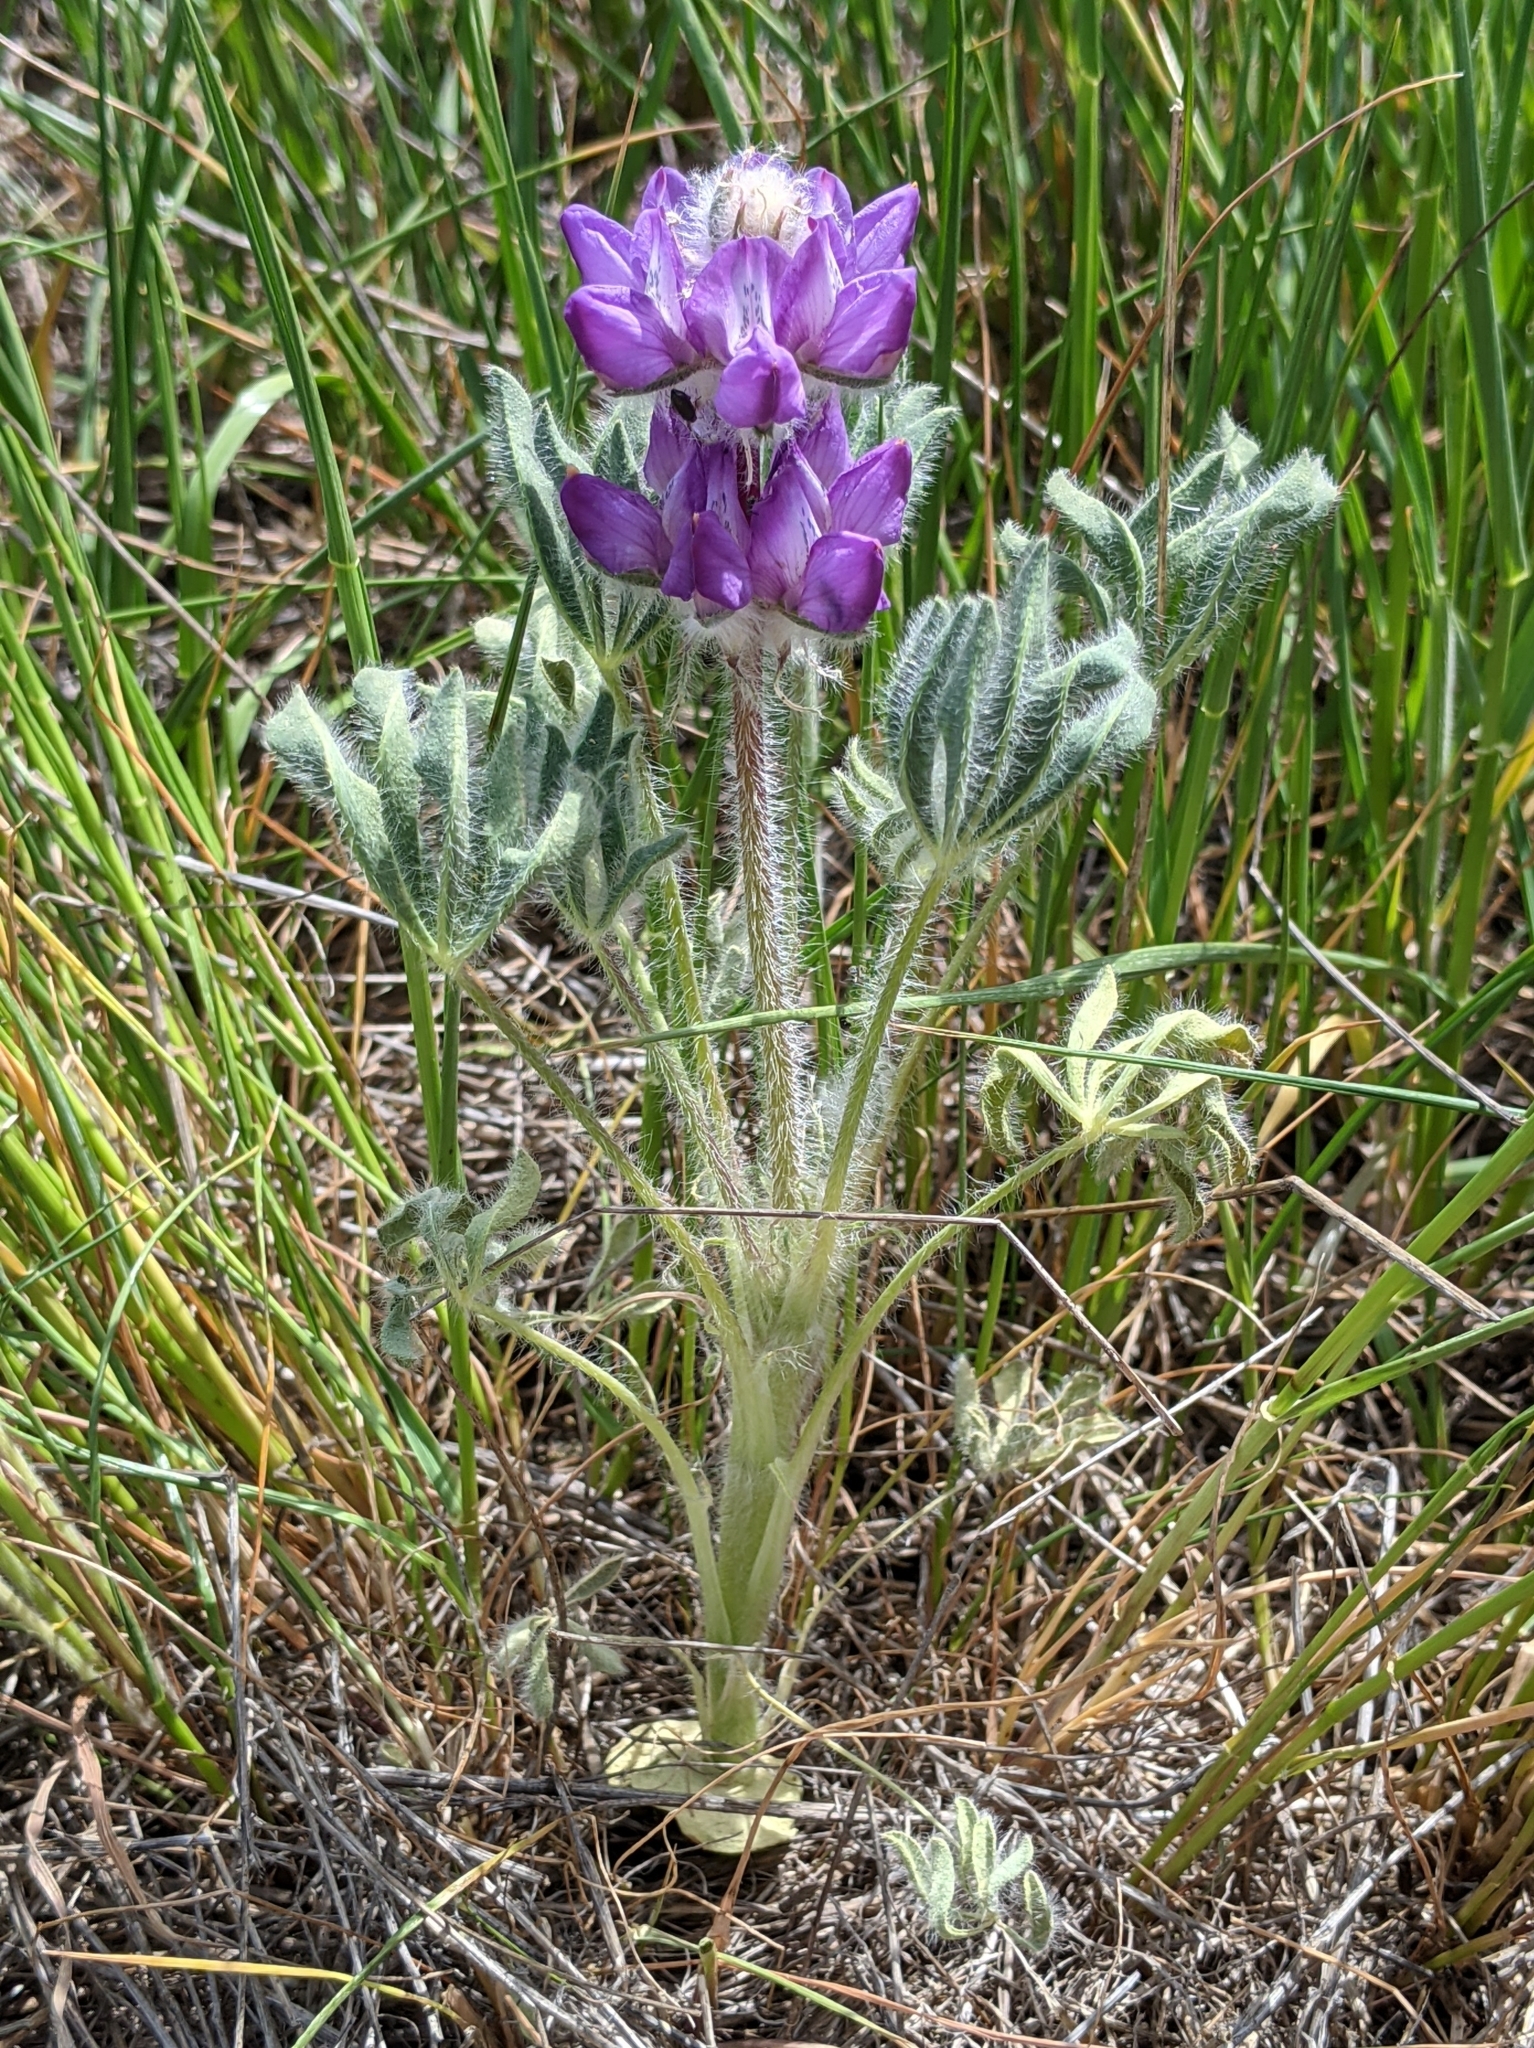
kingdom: Plantae
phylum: Tracheophyta
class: Magnoliopsida
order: Fabales
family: Fabaceae
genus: Lupinus
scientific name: Lupinus microcarpus
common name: Chick lupine
